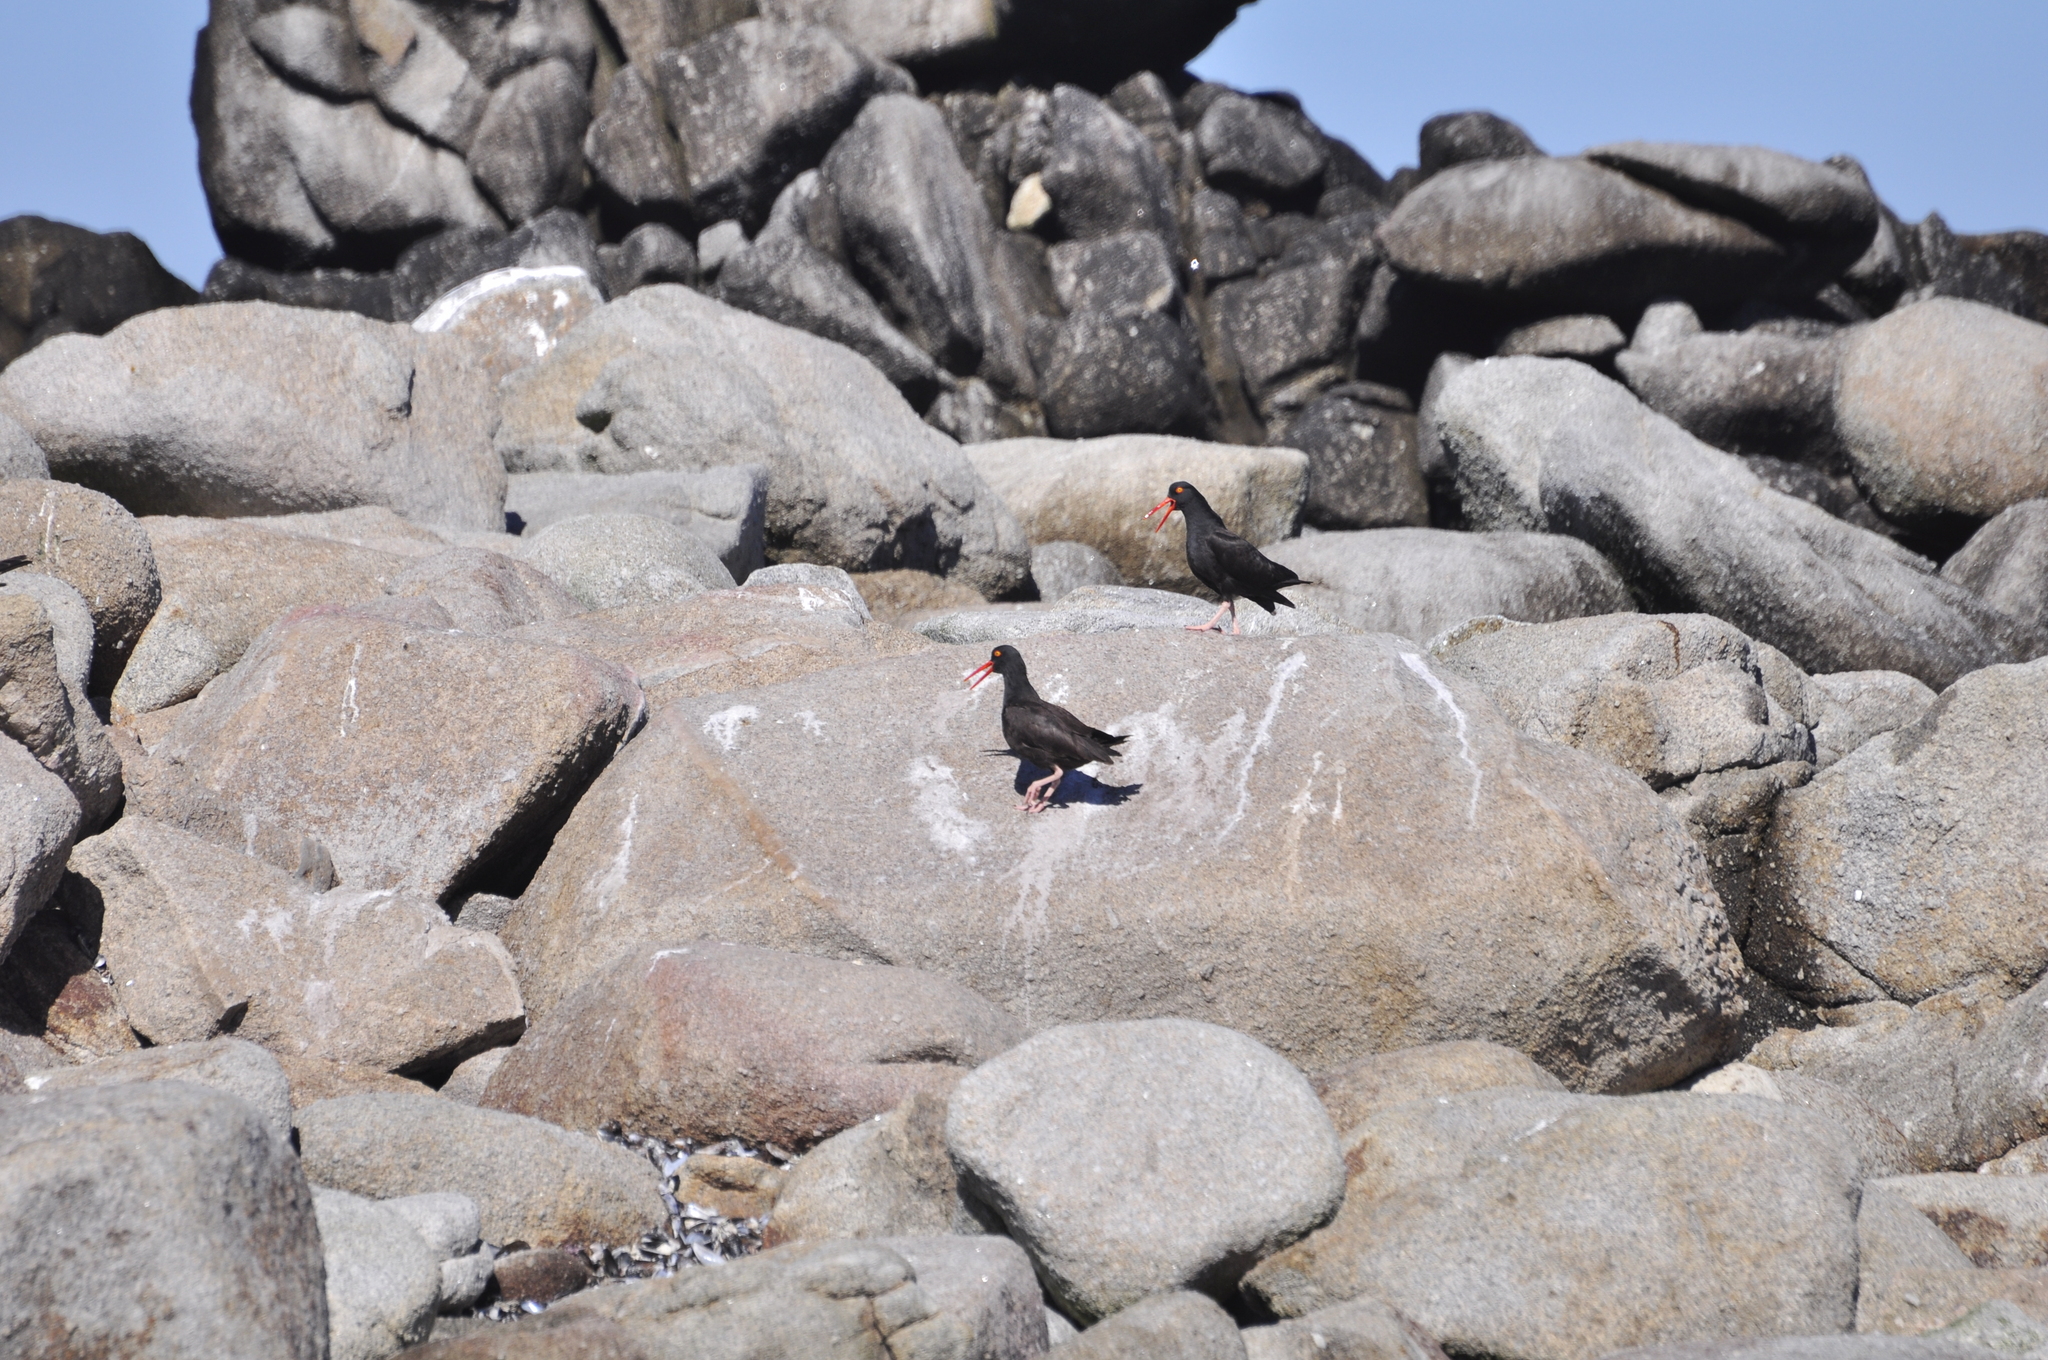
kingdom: Animalia
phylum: Chordata
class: Aves
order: Charadriiformes
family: Haematopodidae
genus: Haematopus
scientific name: Haematopus bachmani
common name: Black oystercatcher
